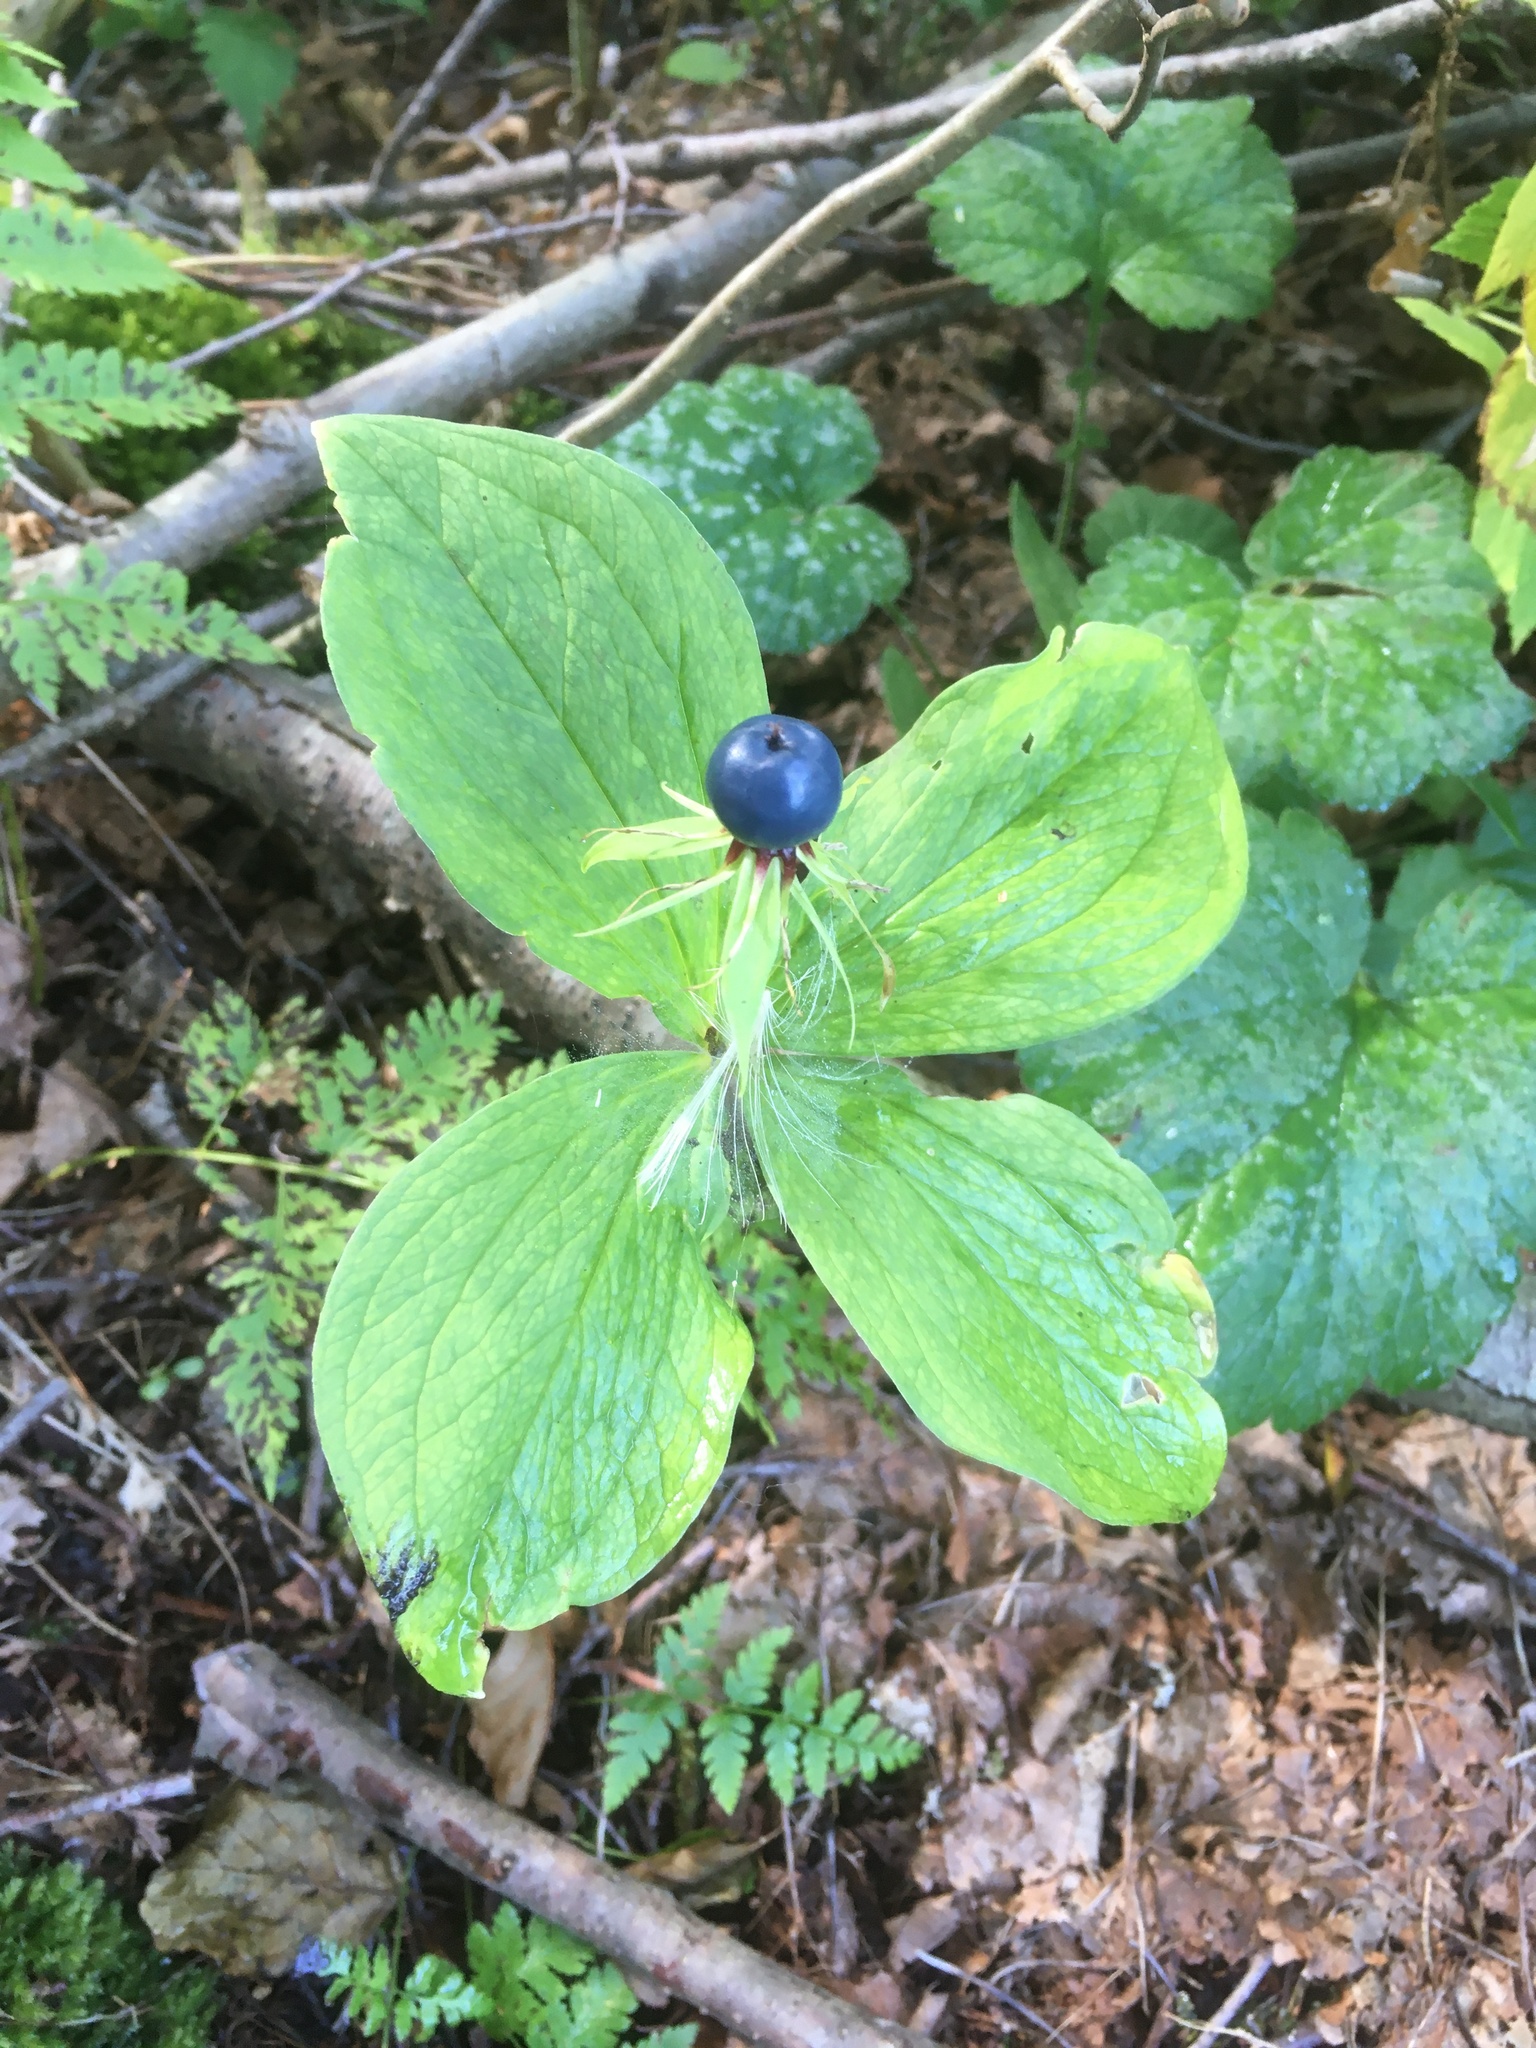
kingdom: Plantae
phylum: Tracheophyta
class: Liliopsida
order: Liliales
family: Melanthiaceae
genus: Paris
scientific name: Paris quadrifolia
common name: Herb-paris
